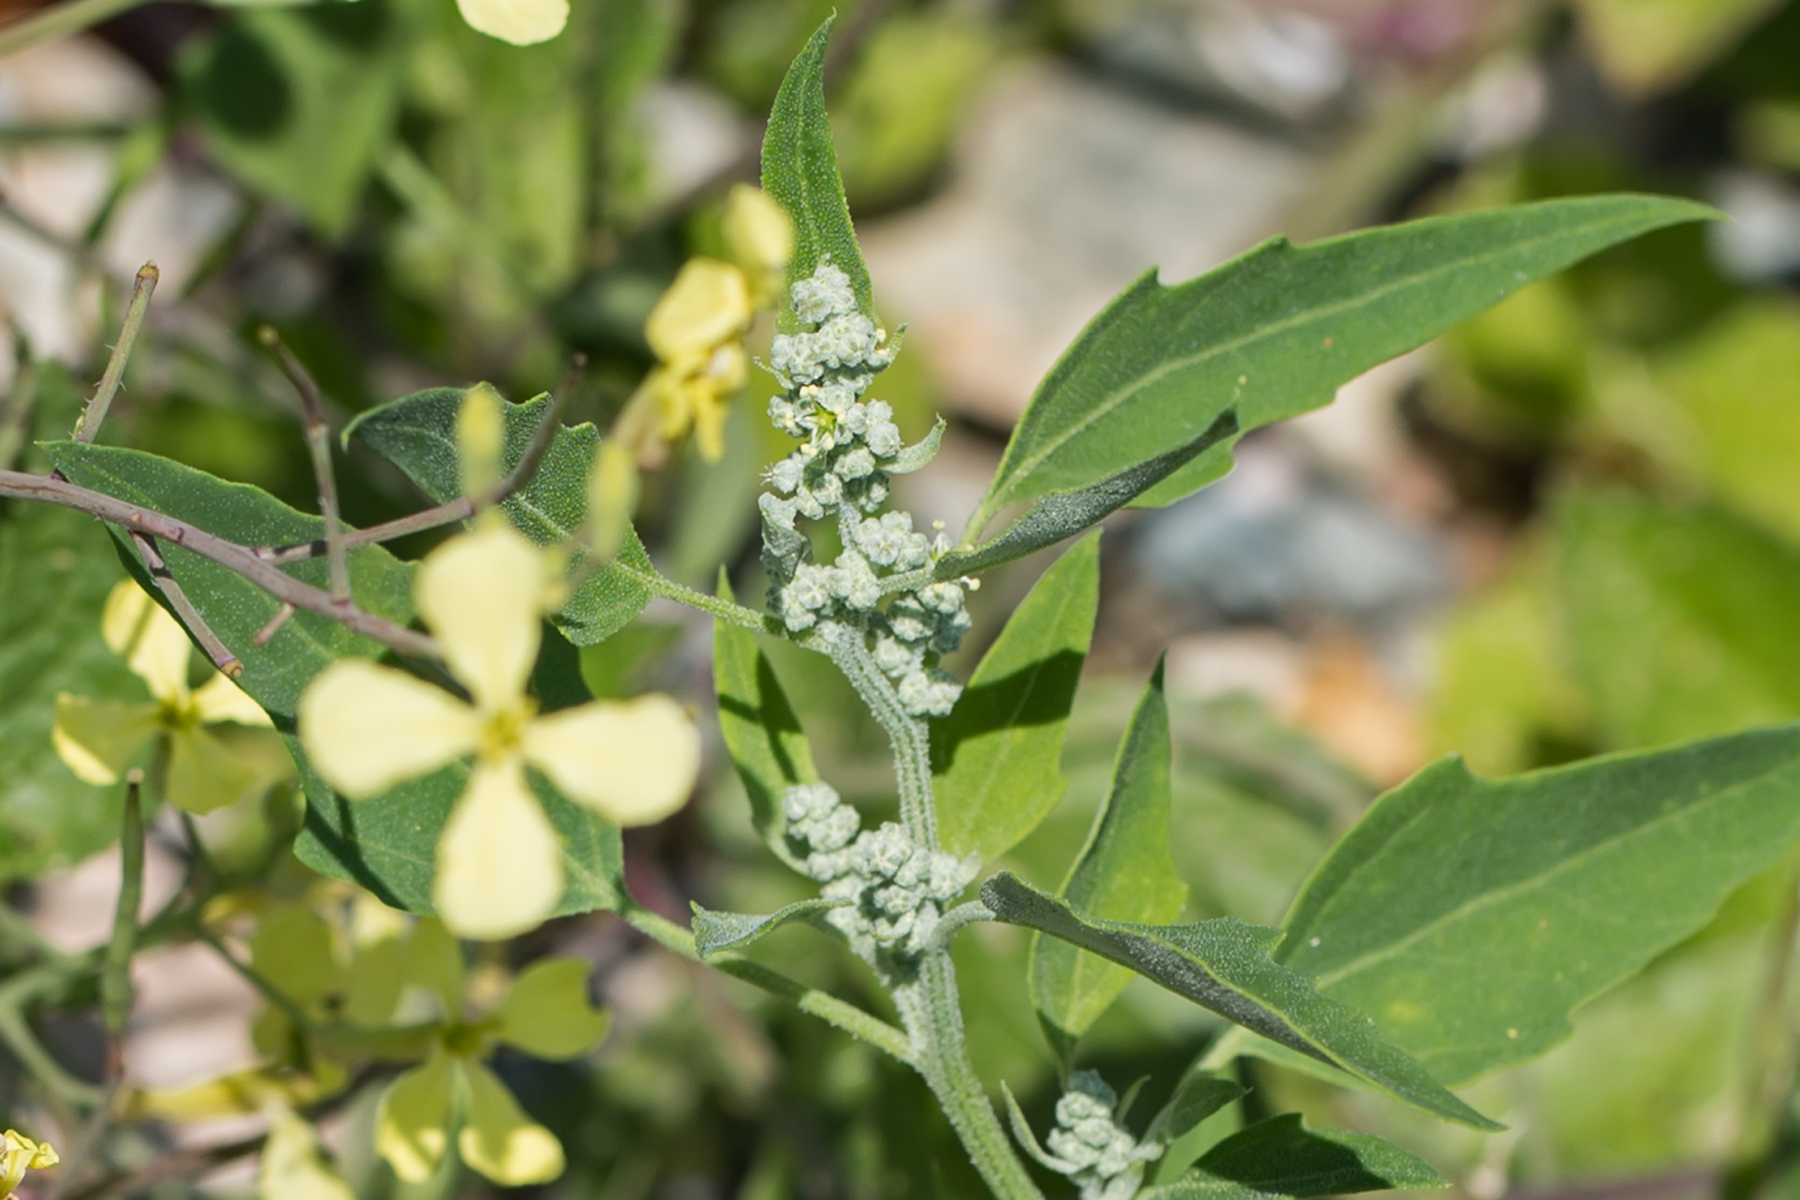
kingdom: Plantae
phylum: Tracheophyta
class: Magnoliopsida
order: Caryophyllales
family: Amaranthaceae
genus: Chenopodium
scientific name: Chenopodium album
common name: Fat-hen
